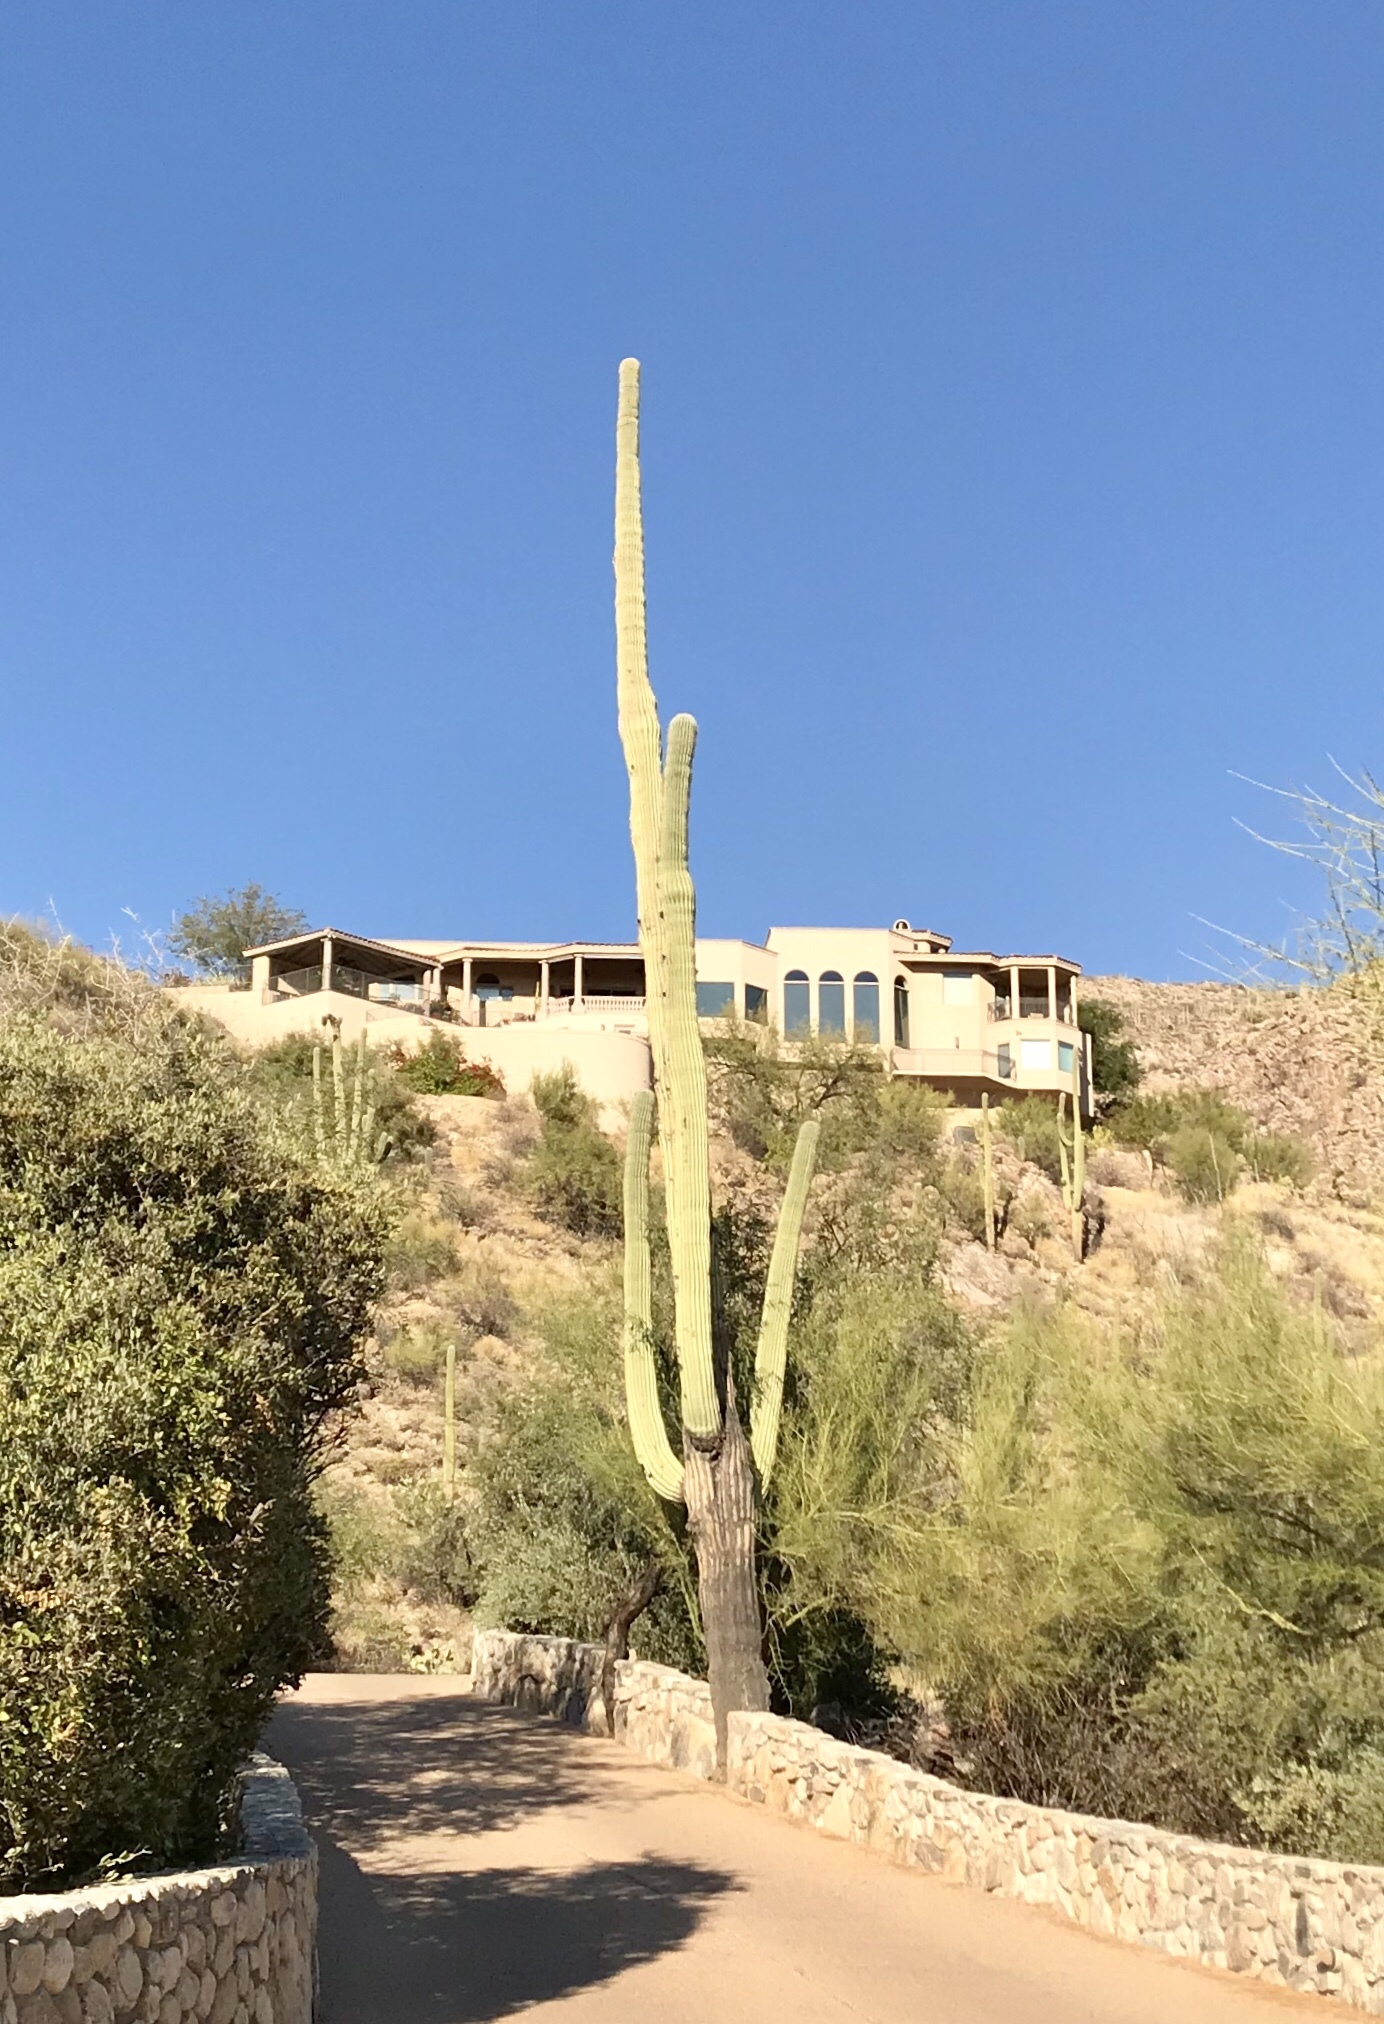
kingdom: Plantae
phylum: Tracheophyta
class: Magnoliopsida
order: Caryophyllales
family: Cactaceae
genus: Carnegiea
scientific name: Carnegiea gigantea
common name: Saguaro
